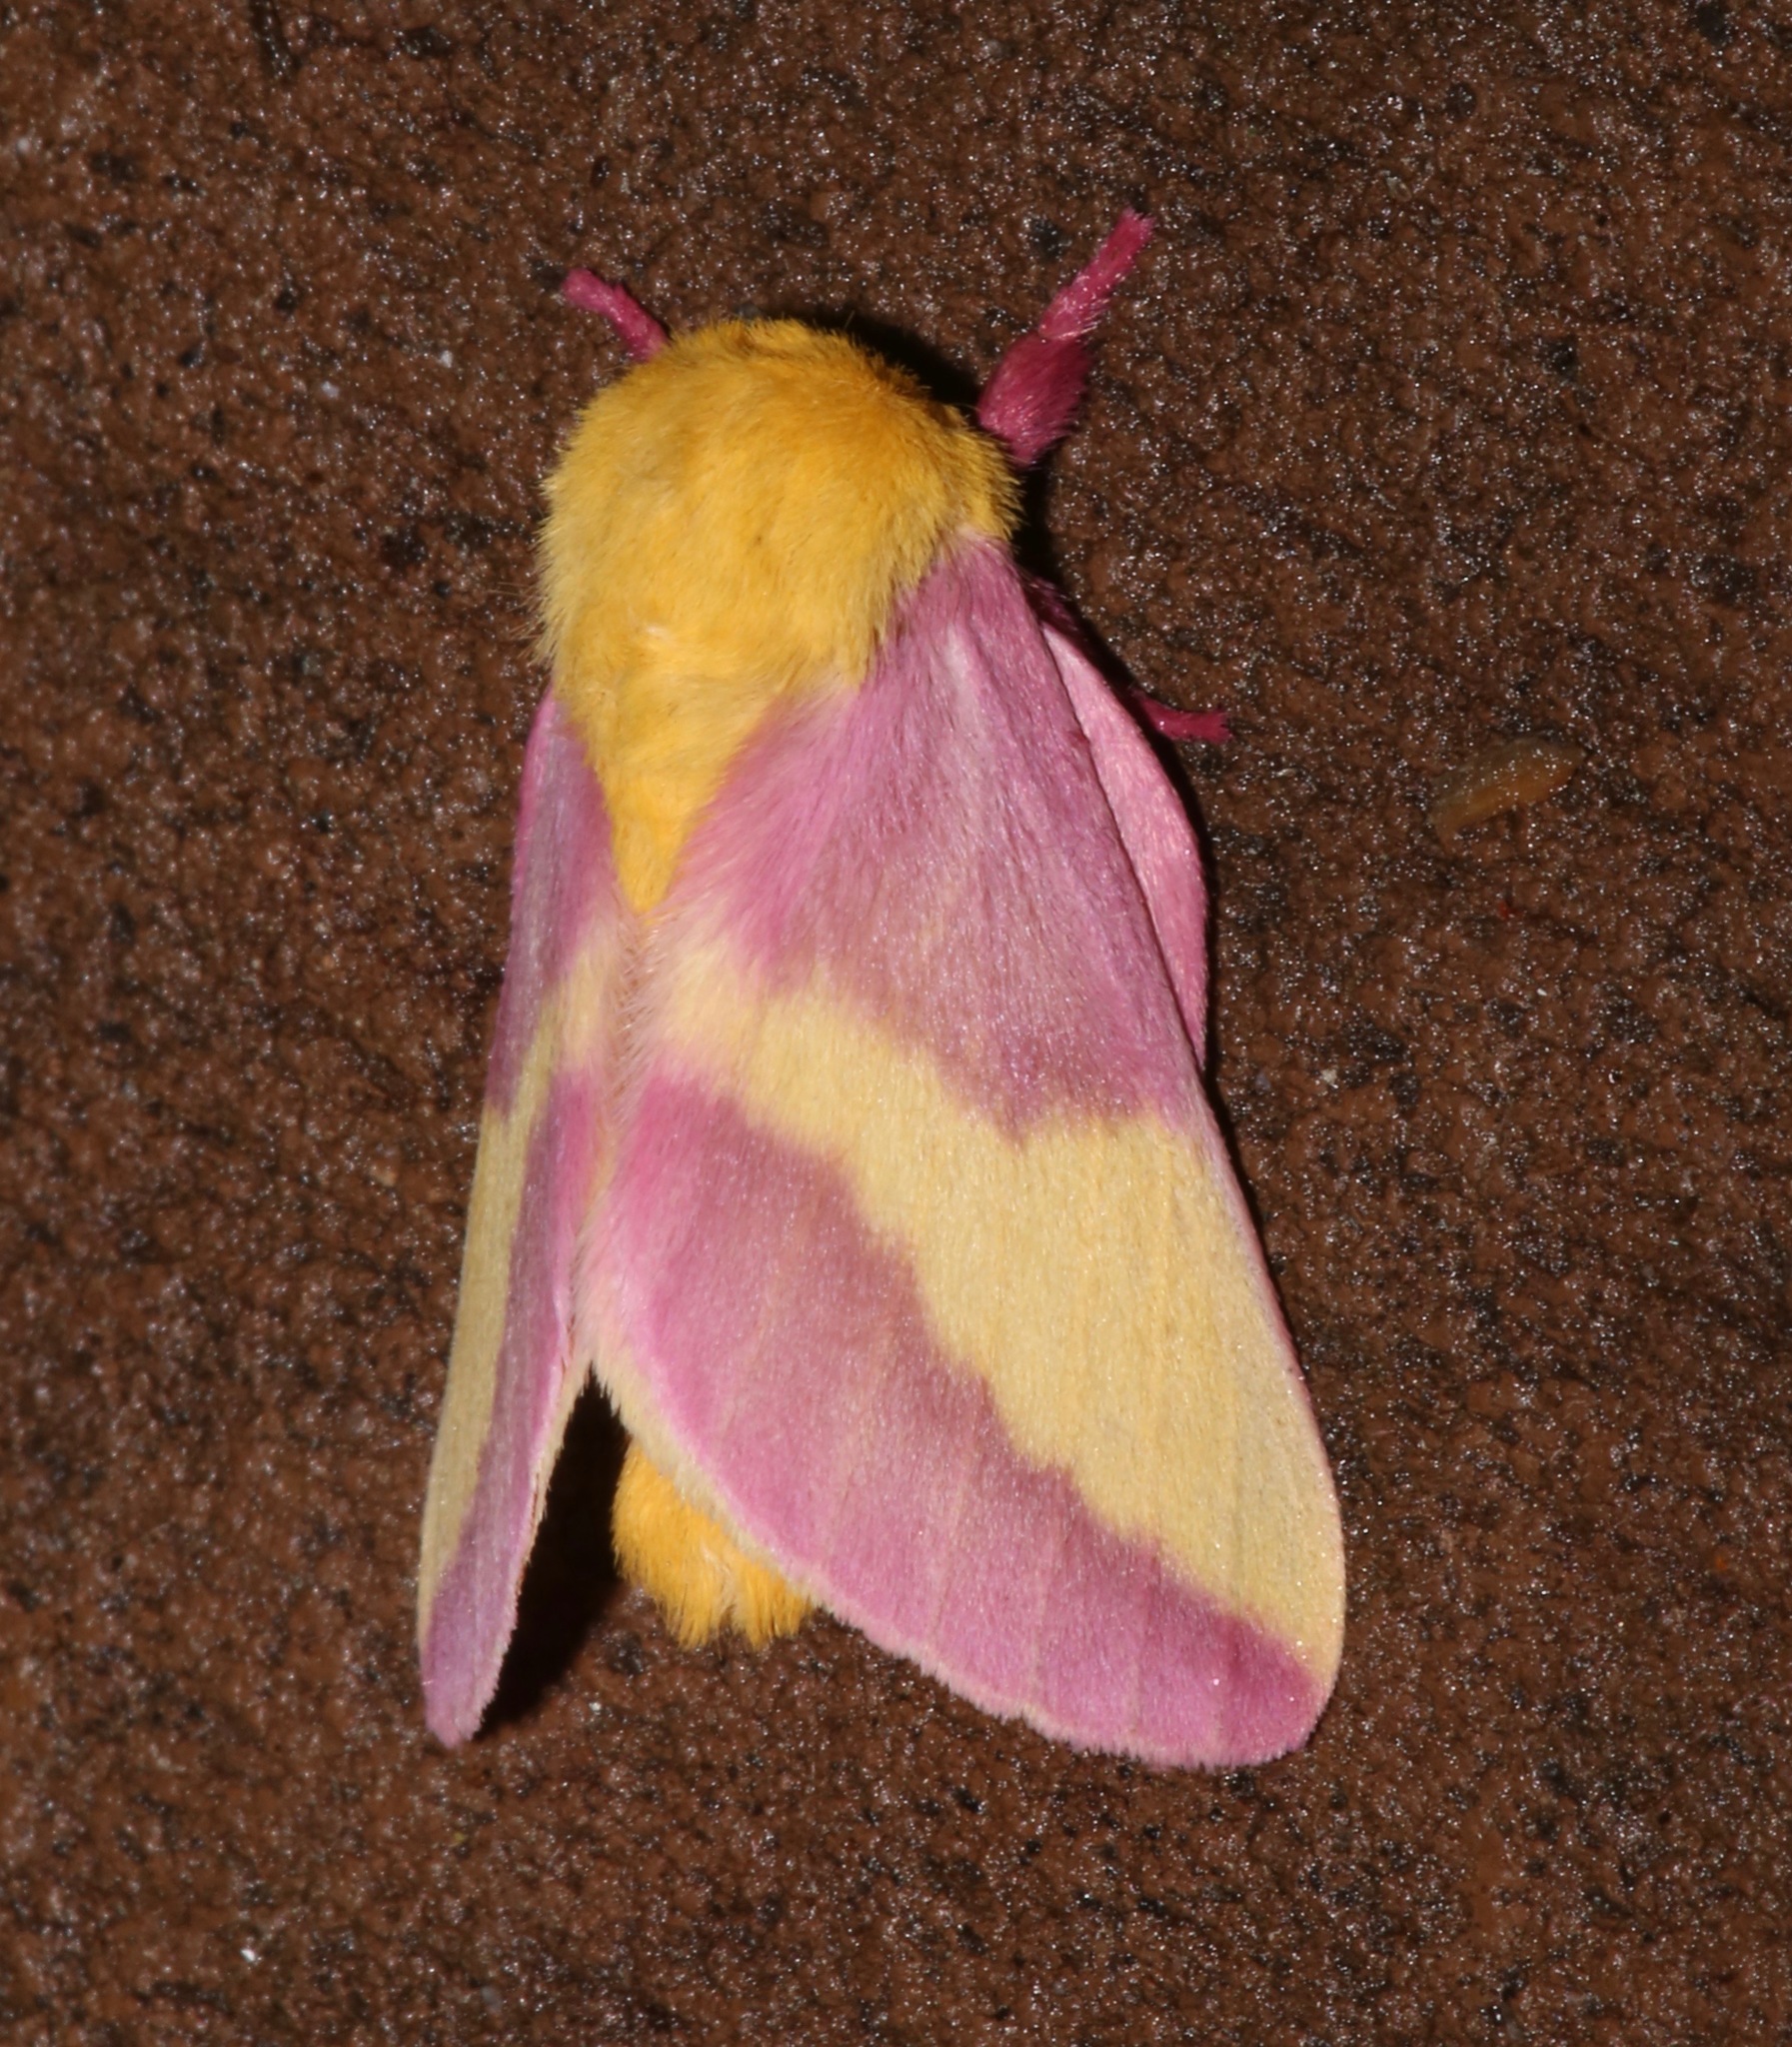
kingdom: Animalia
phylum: Arthropoda
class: Insecta
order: Lepidoptera
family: Saturniidae
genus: Dryocampa
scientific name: Dryocampa rubicunda
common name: Rosy maple moth
